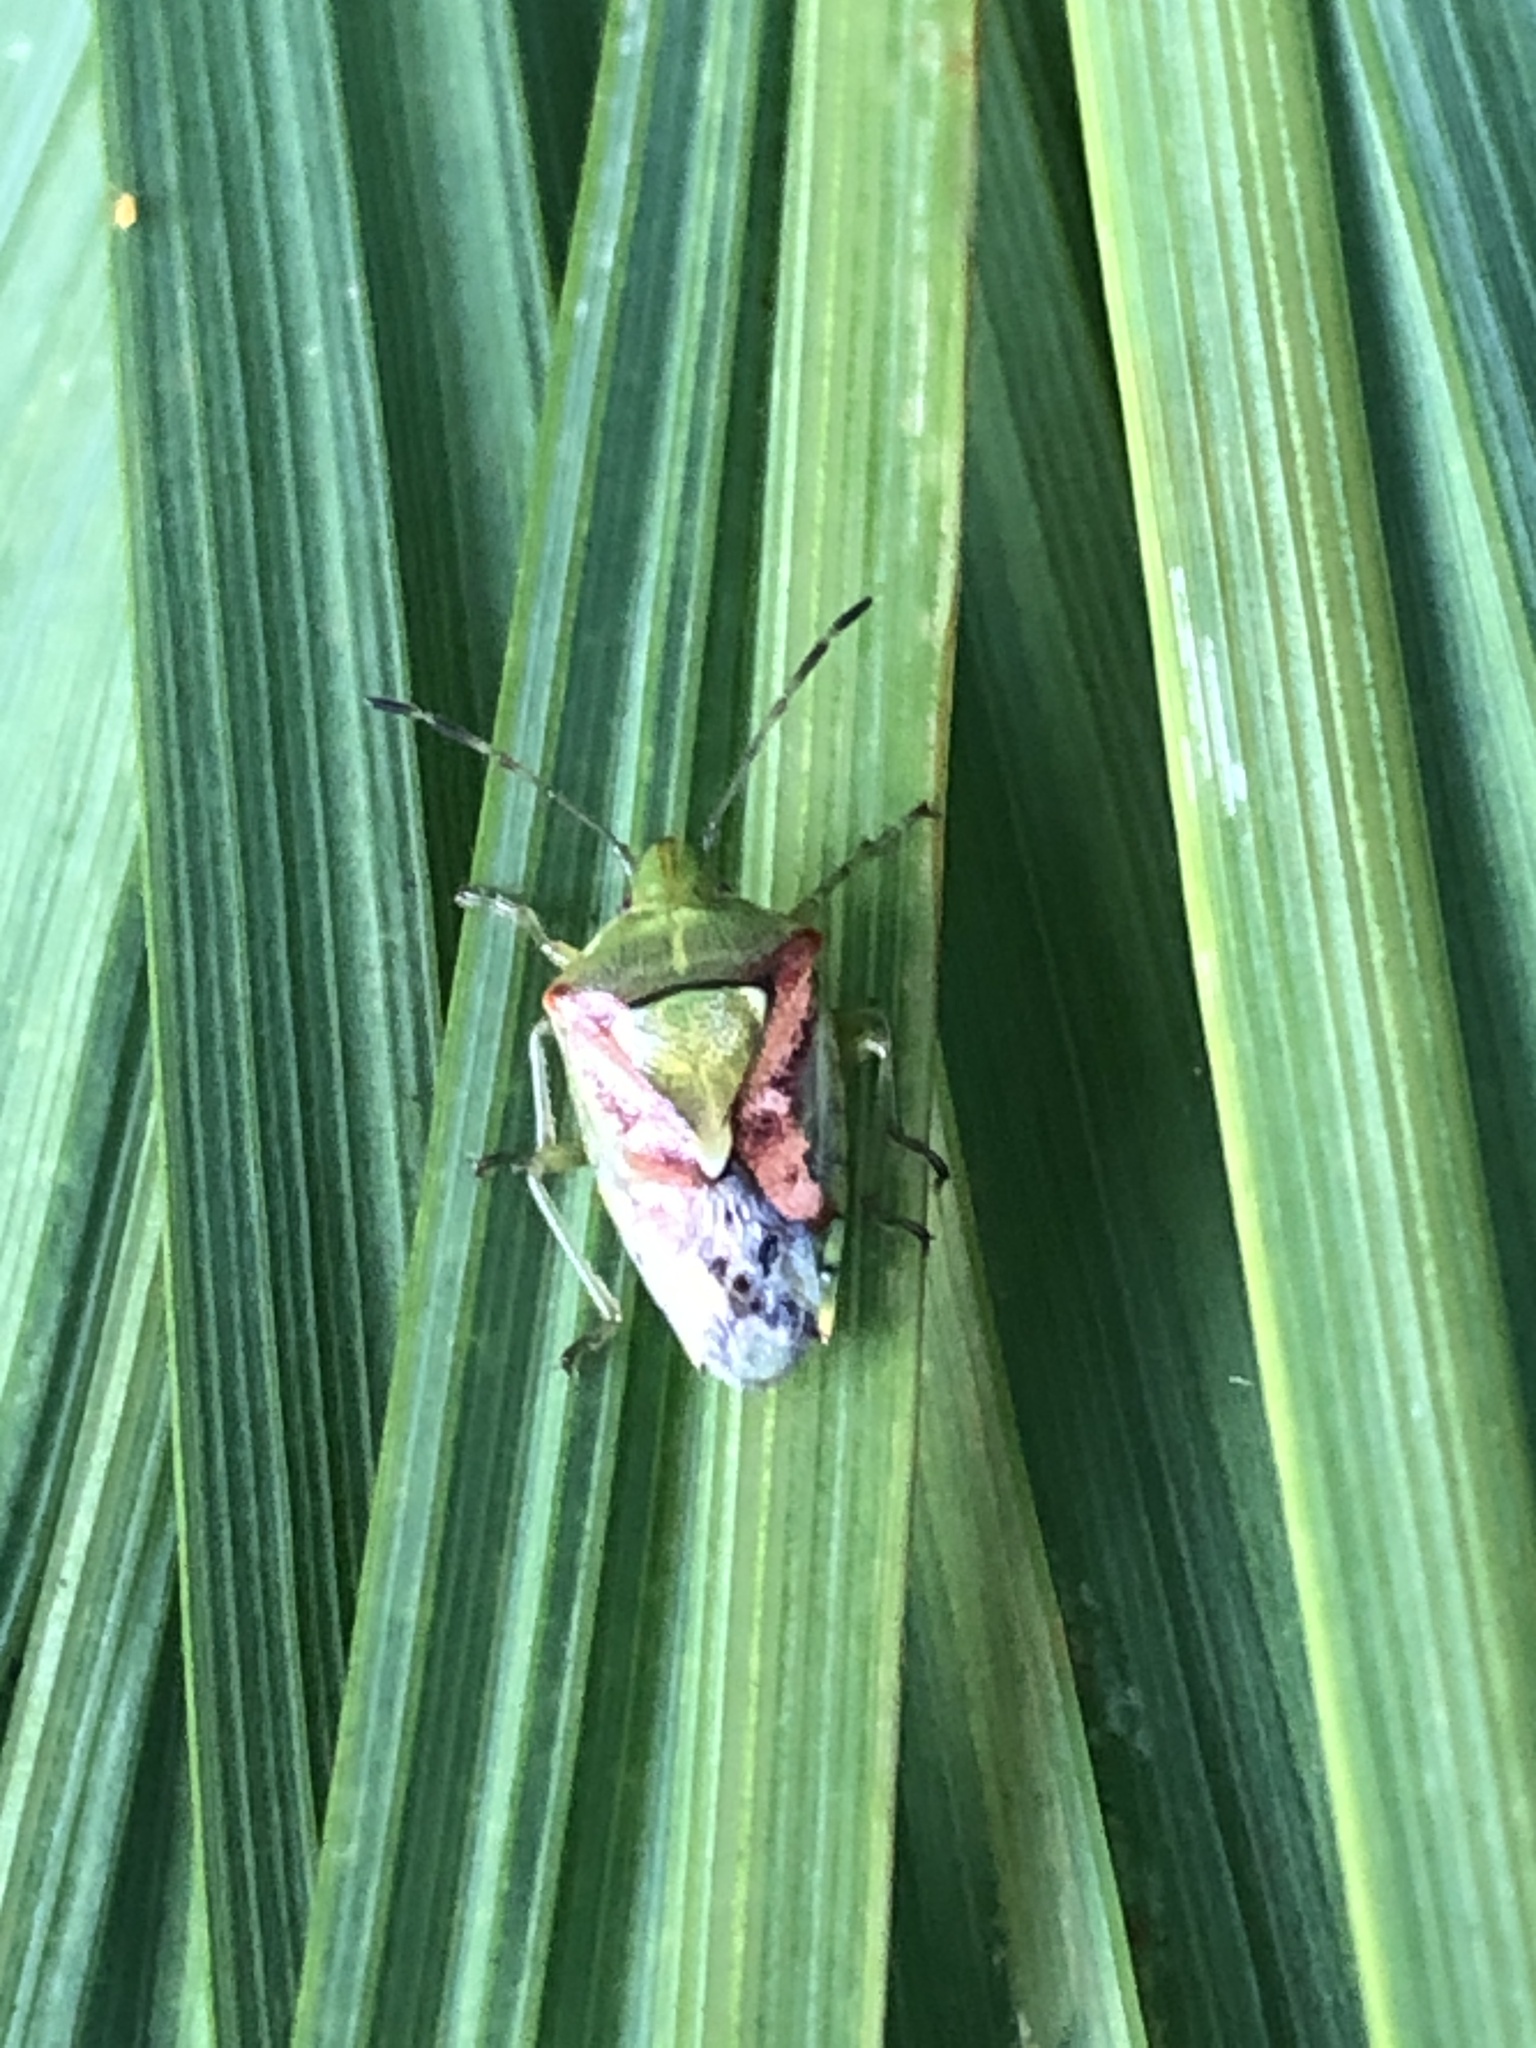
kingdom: Animalia
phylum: Arthropoda
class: Insecta
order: Hemiptera
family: Acanthosomatidae
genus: Cyphostethus
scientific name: Cyphostethus tristriatus
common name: Juniper shieldbug
